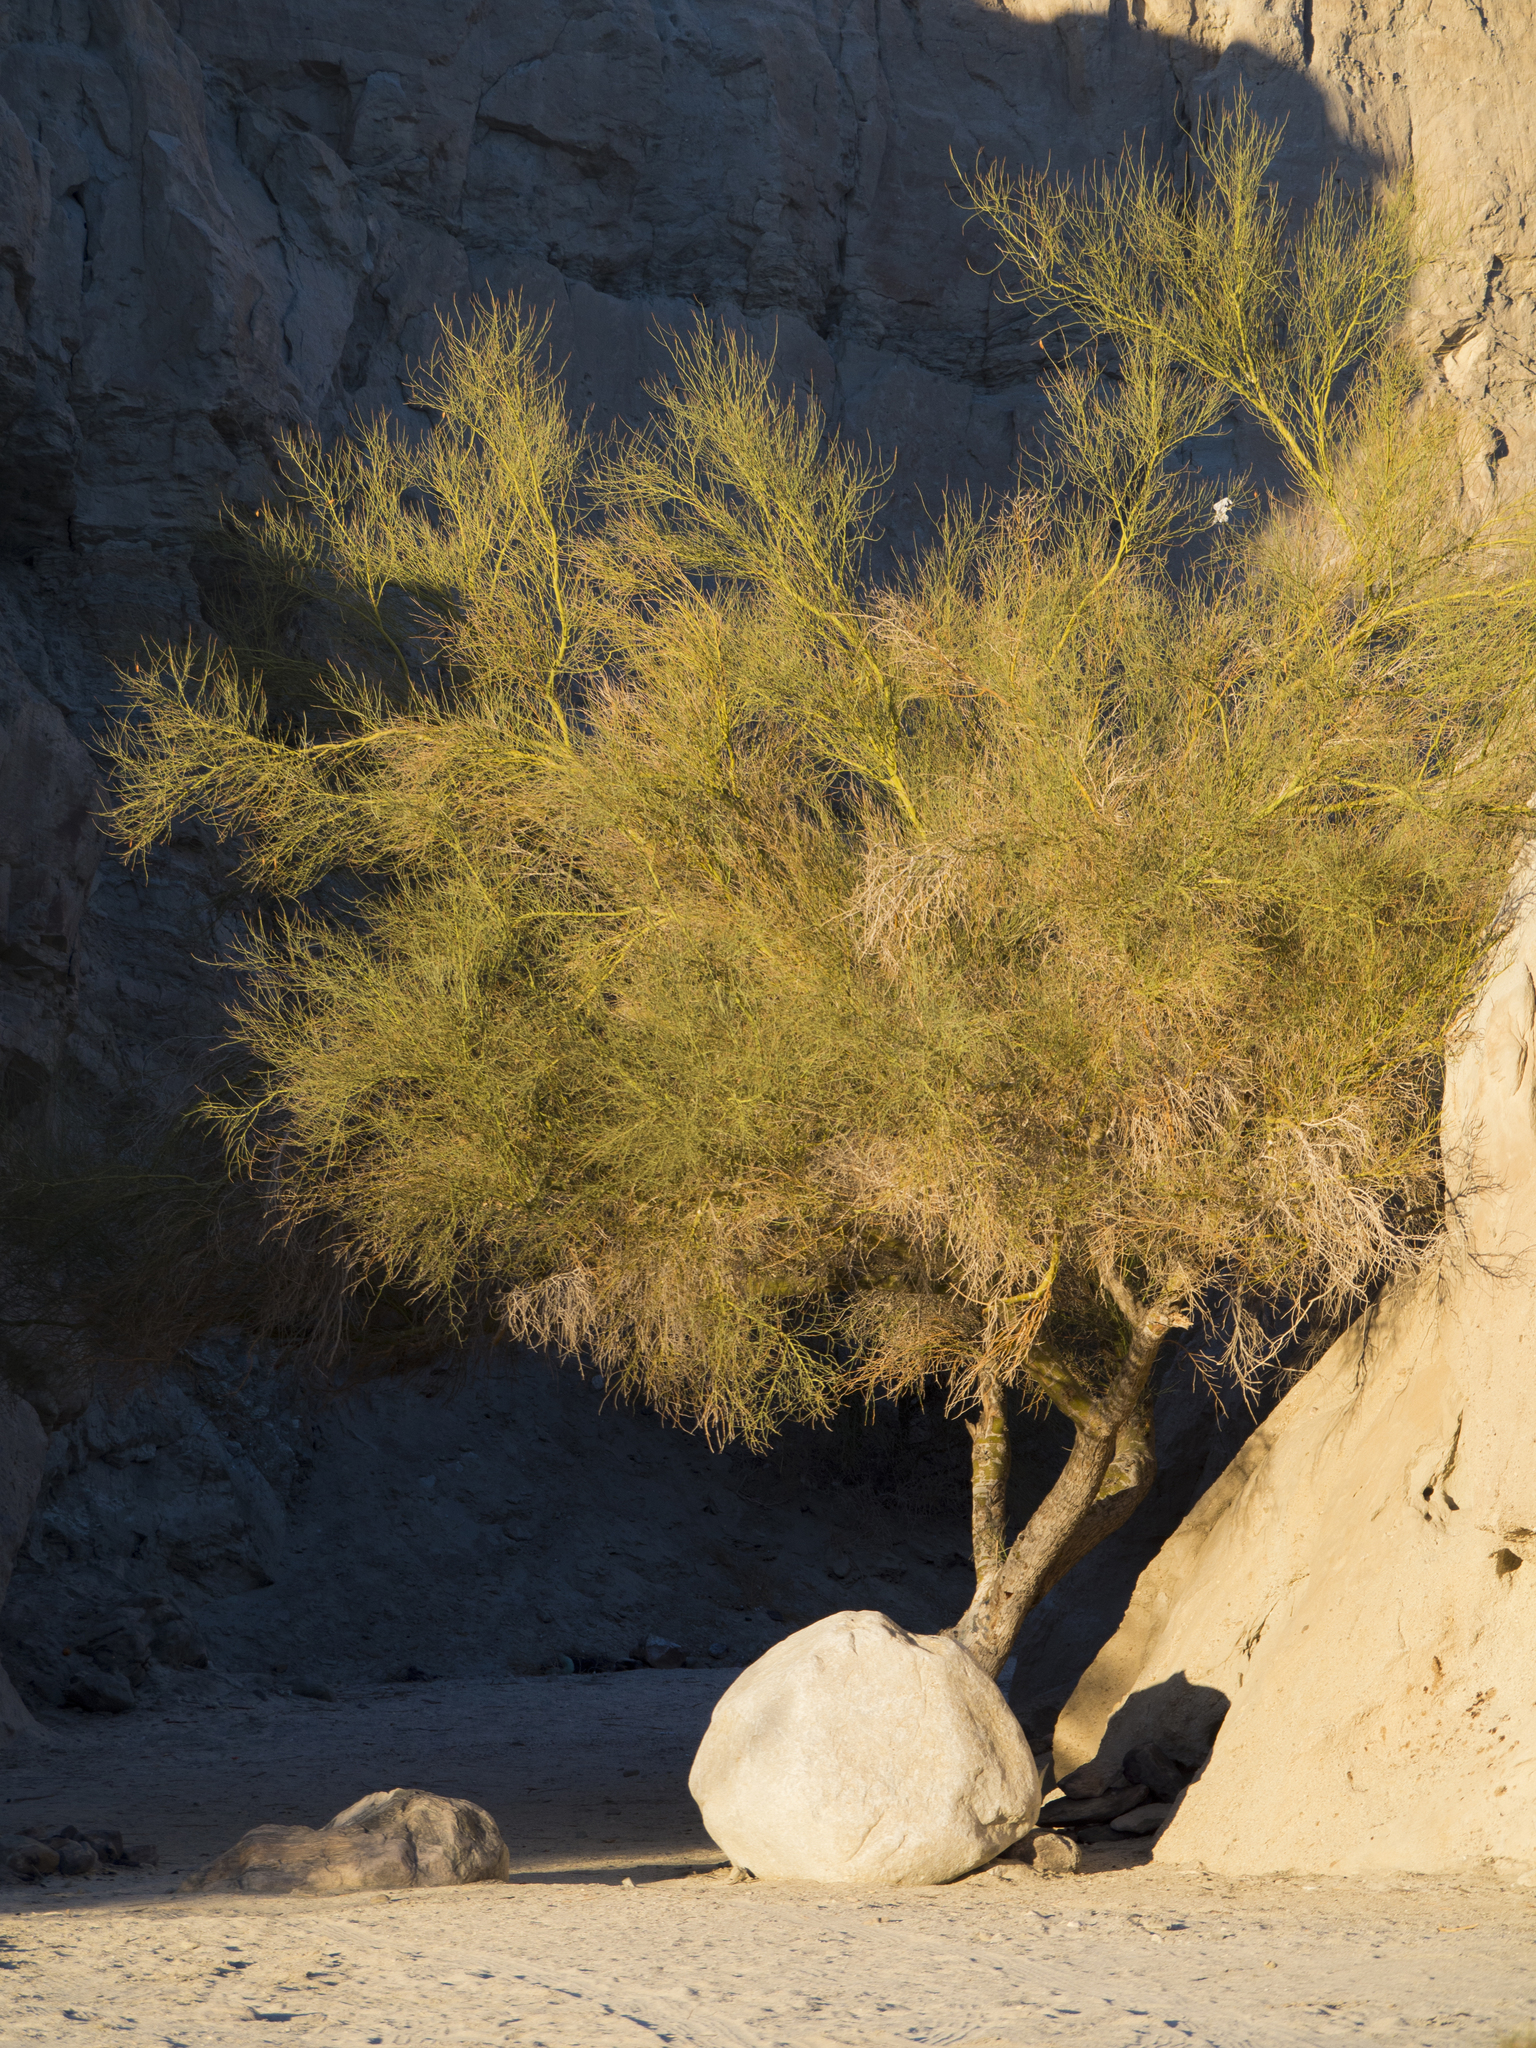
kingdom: Plantae
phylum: Tracheophyta
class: Magnoliopsida
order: Fabales
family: Fabaceae
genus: Parkinsonia
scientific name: Parkinsonia florida
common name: Blue paloverde
